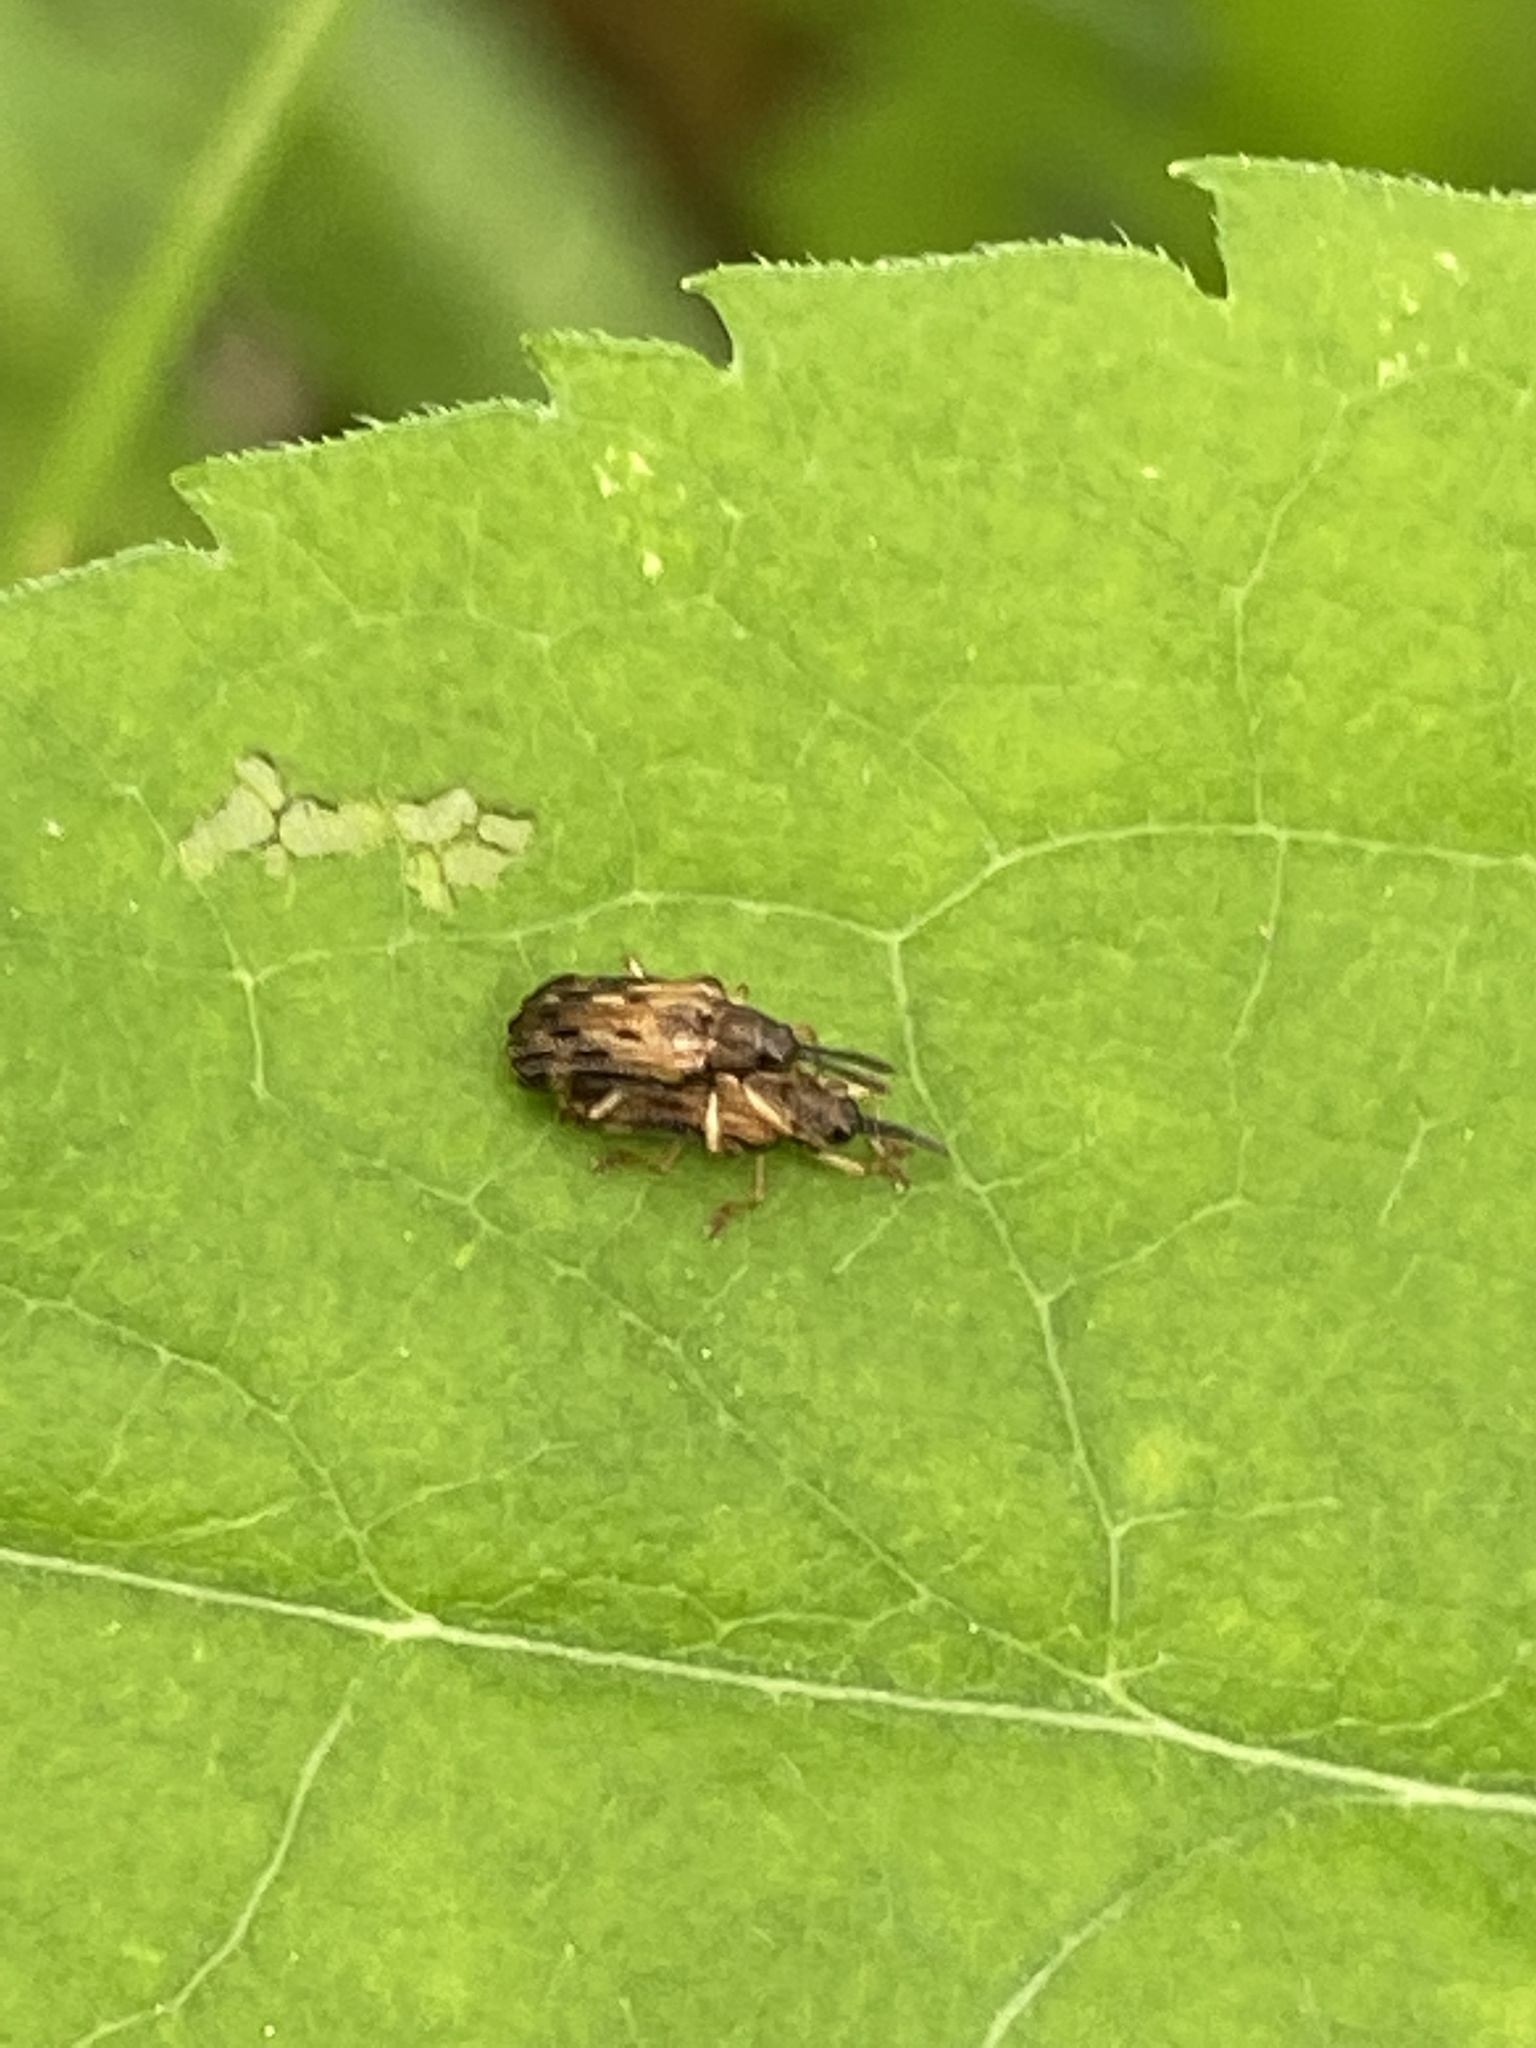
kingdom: Animalia
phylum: Arthropoda
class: Insecta
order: Coleoptera
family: Chrysomelidae
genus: Sumitrosis
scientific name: Sumitrosis inaequalis
